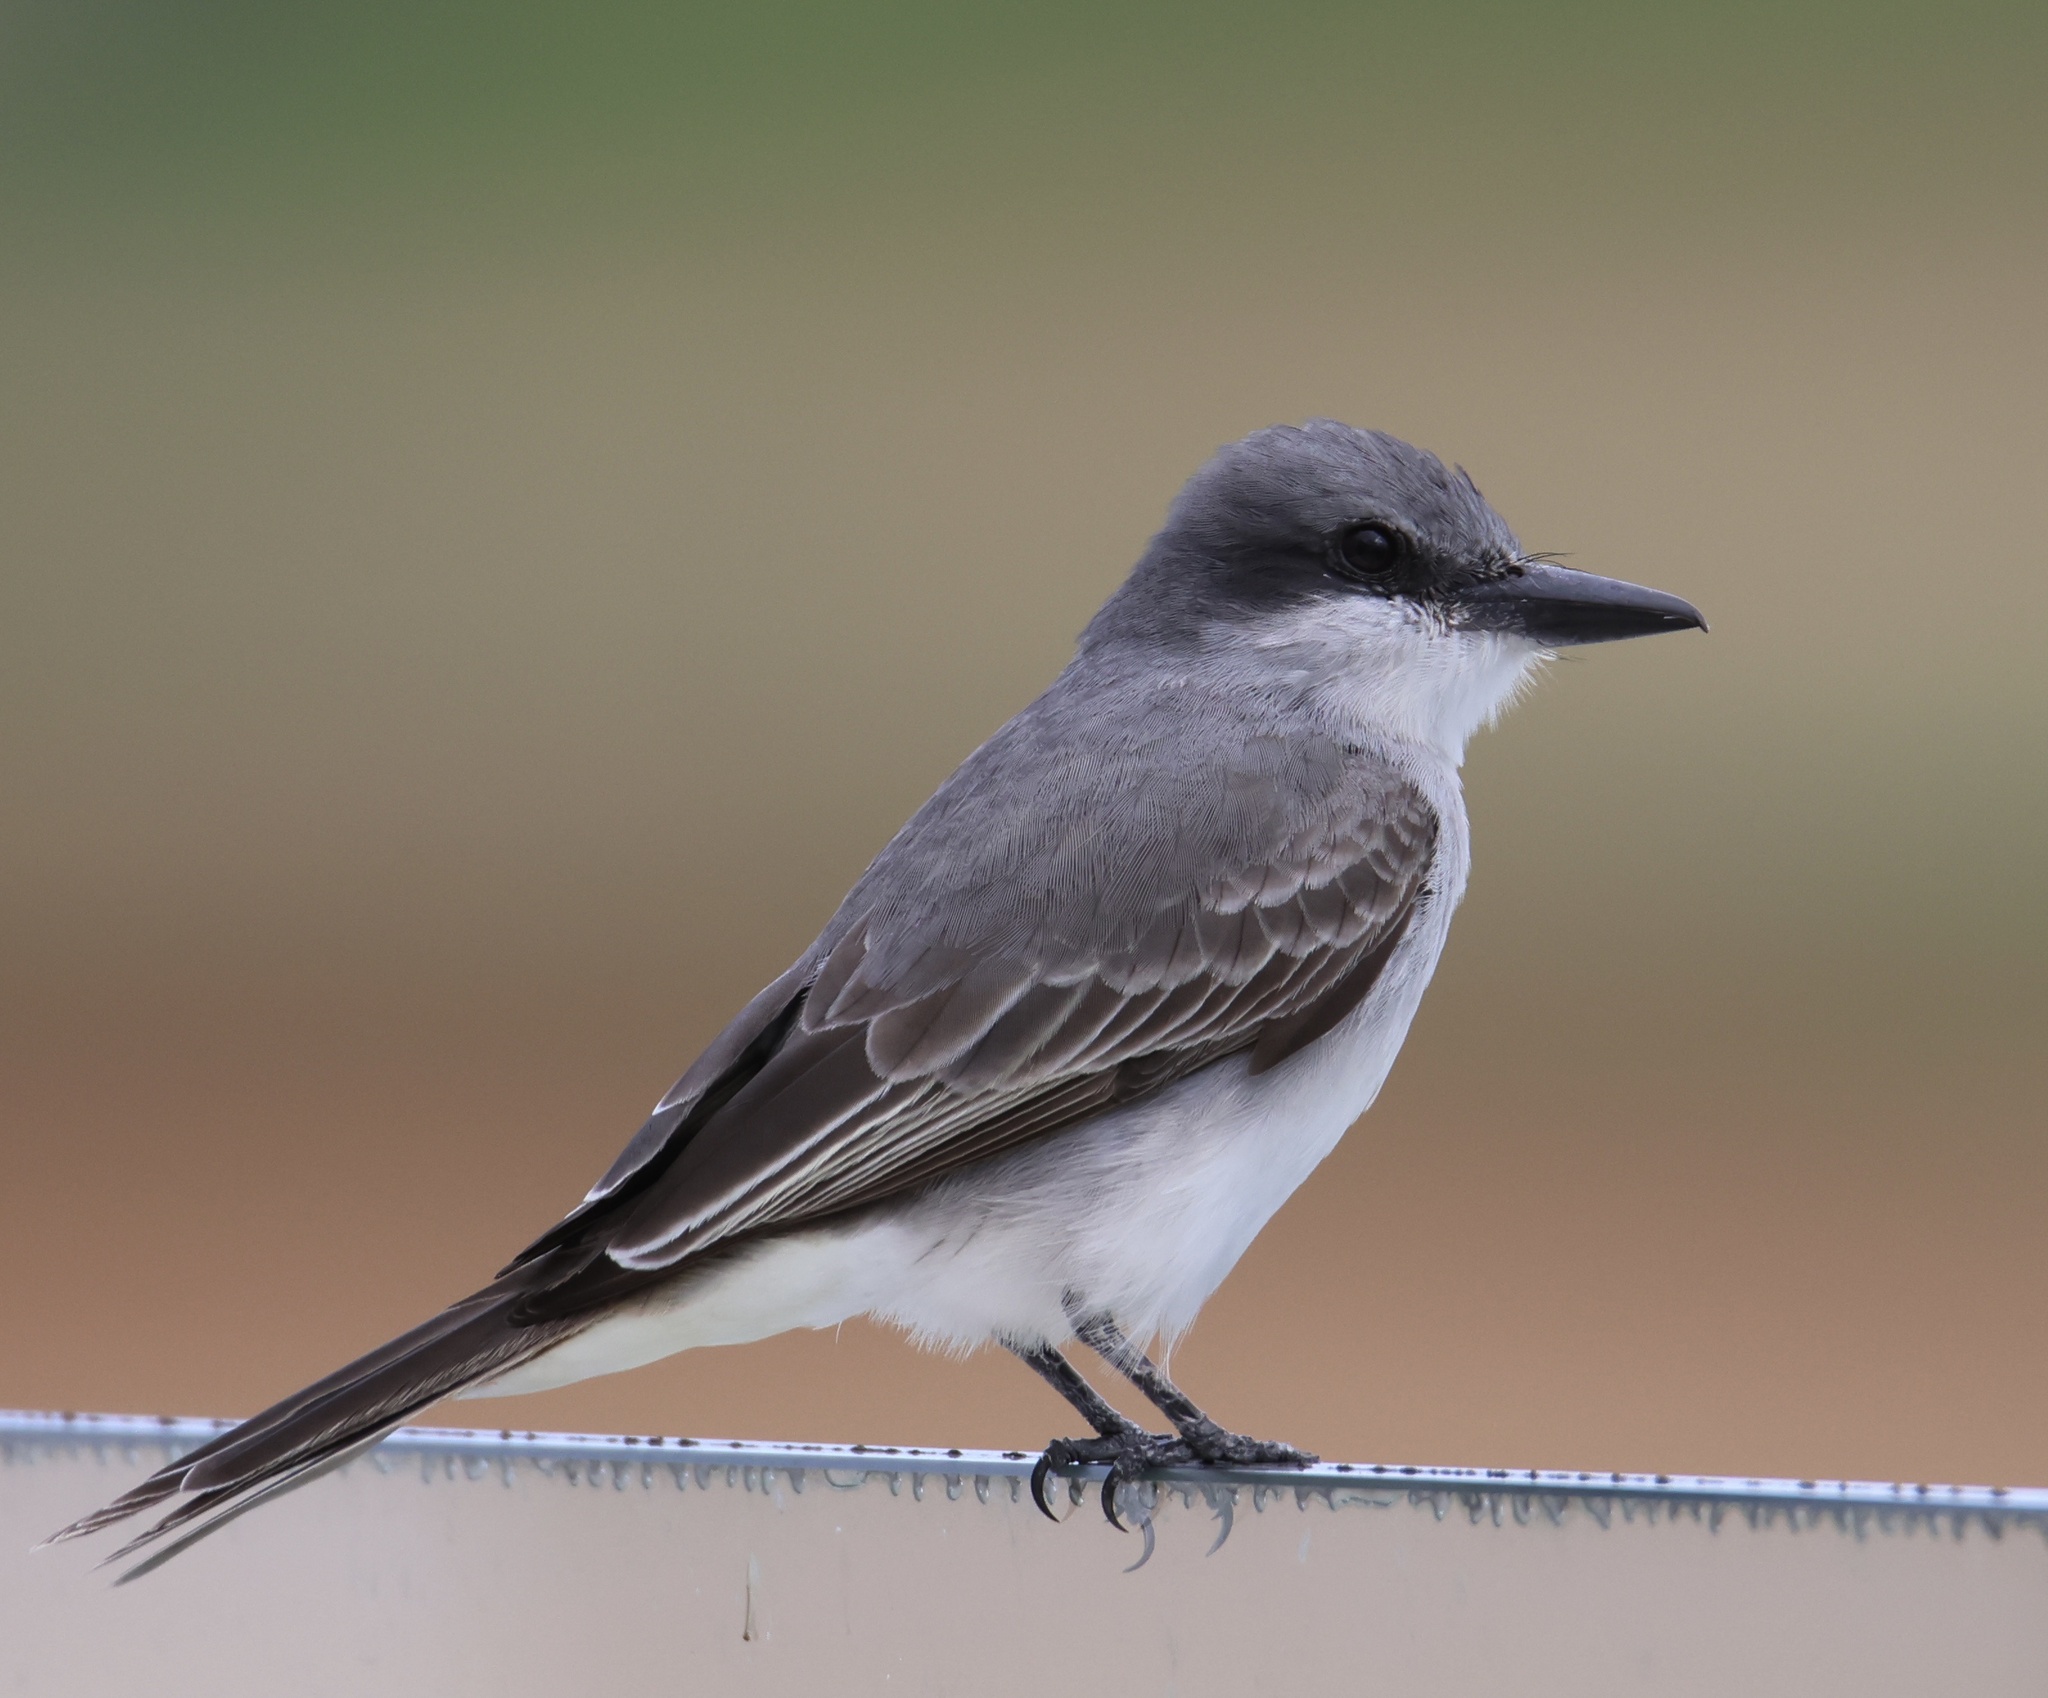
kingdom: Animalia
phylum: Chordata
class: Aves
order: Passeriformes
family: Tyrannidae
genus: Tyrannus
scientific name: Tyrannus dominicensis
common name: Gray kingbird
